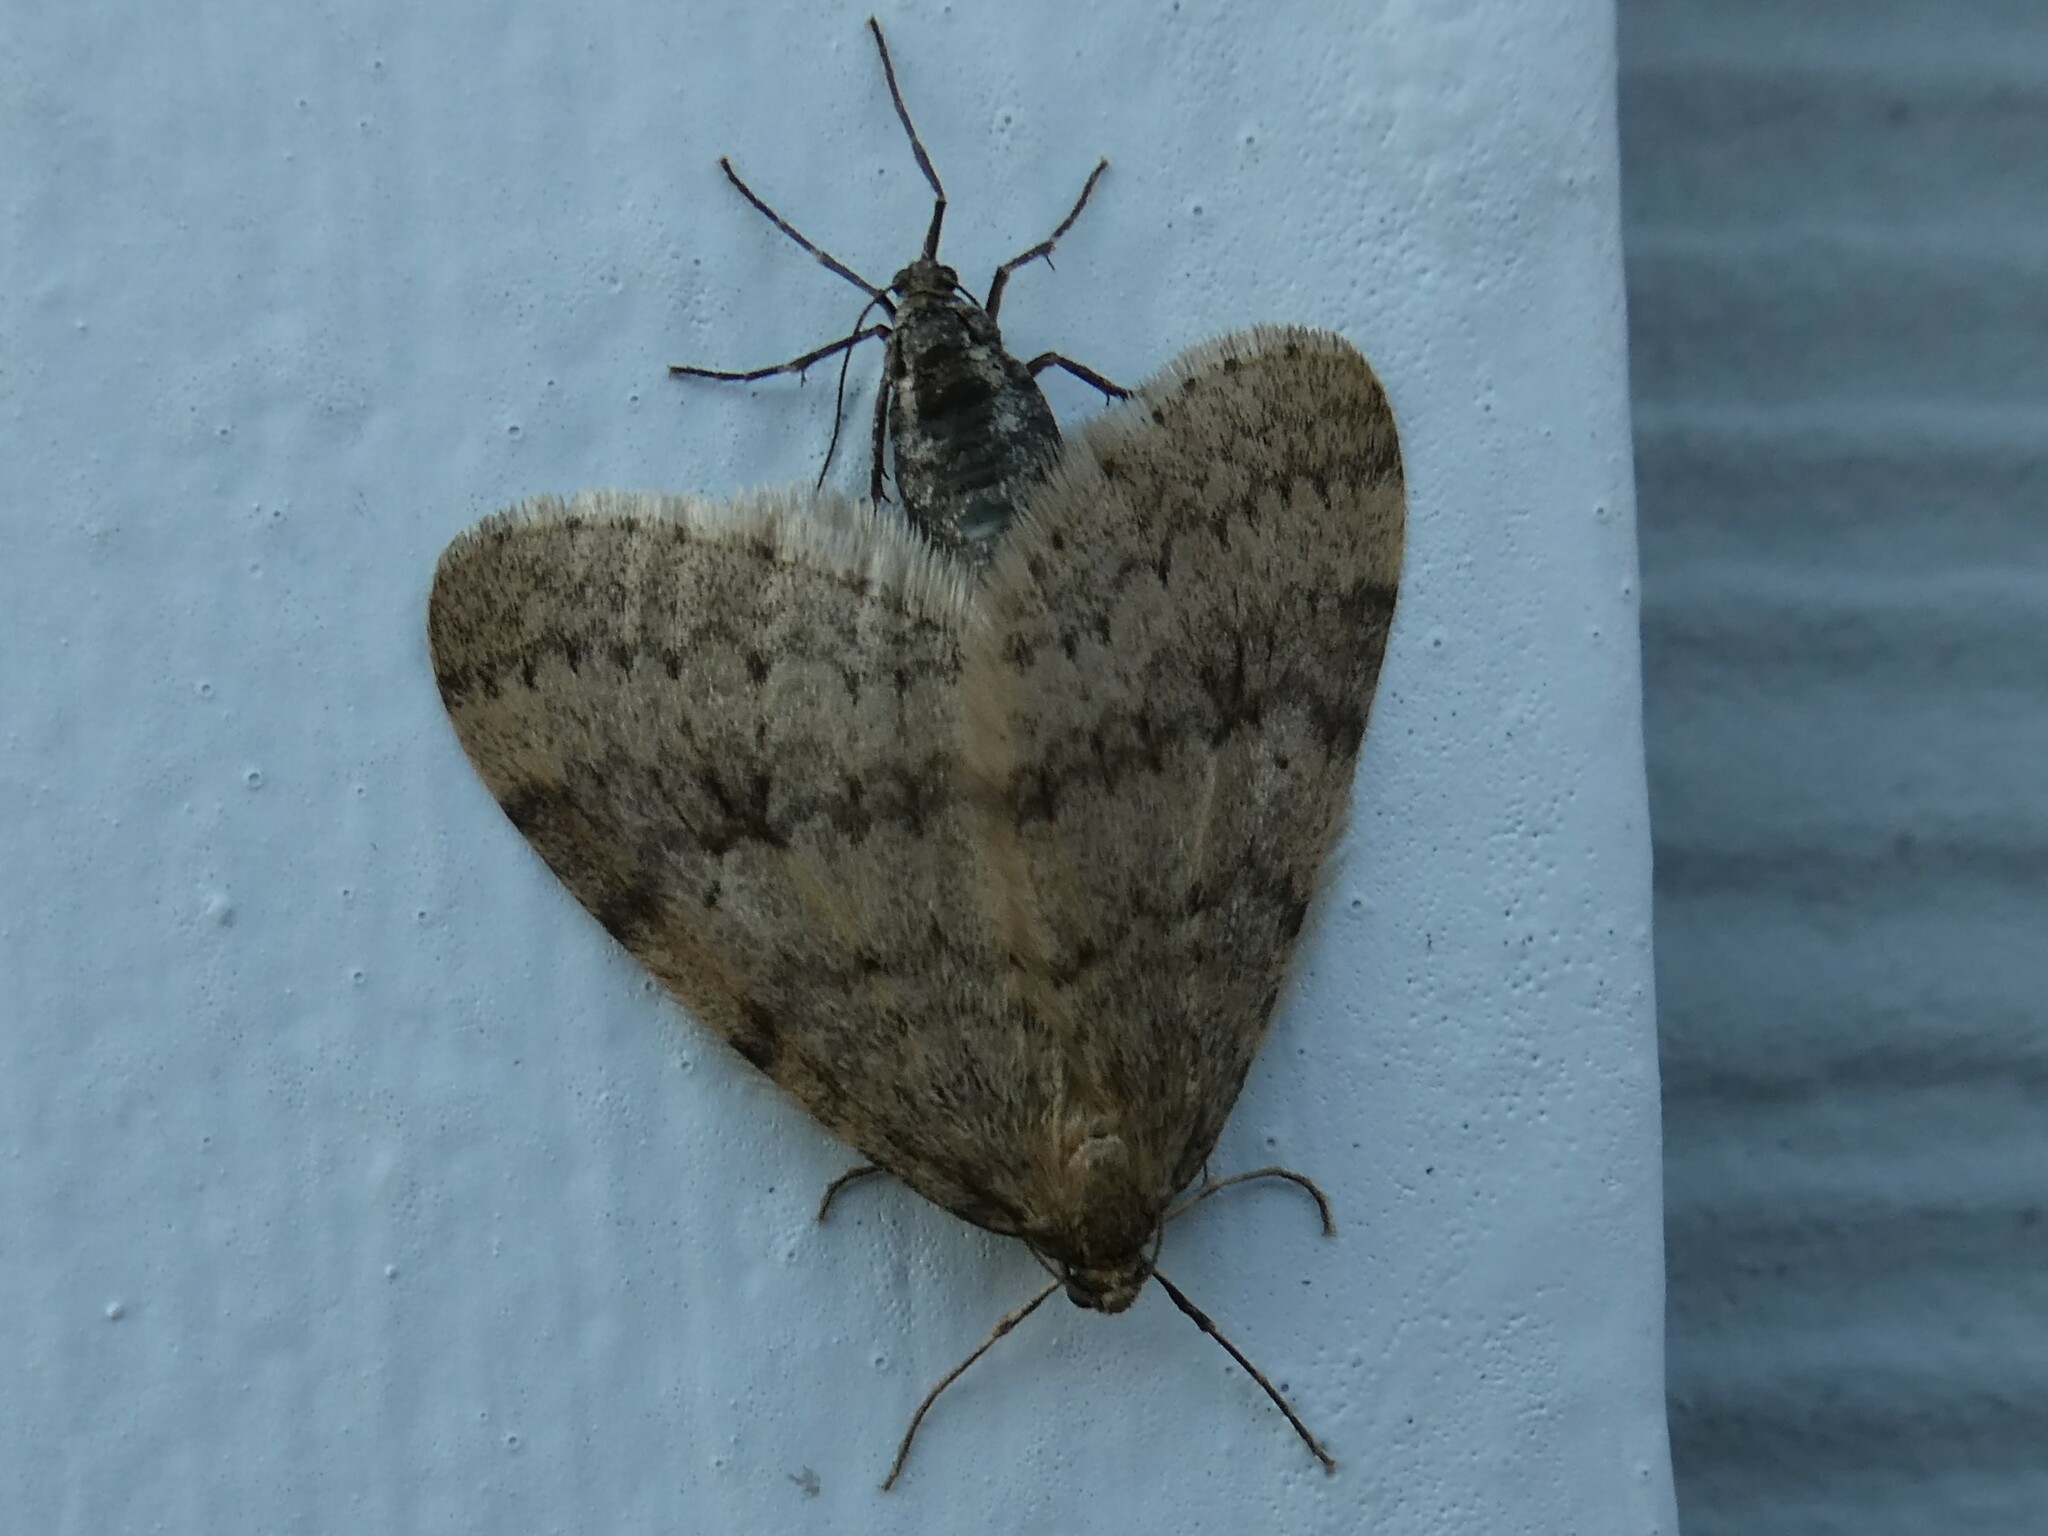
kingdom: Animalia
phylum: Arthropoda
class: Insecta
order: Lepidoptera
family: Geometridae
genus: Operophtera
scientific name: Operophtera bruceata
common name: Bruce spanworm
